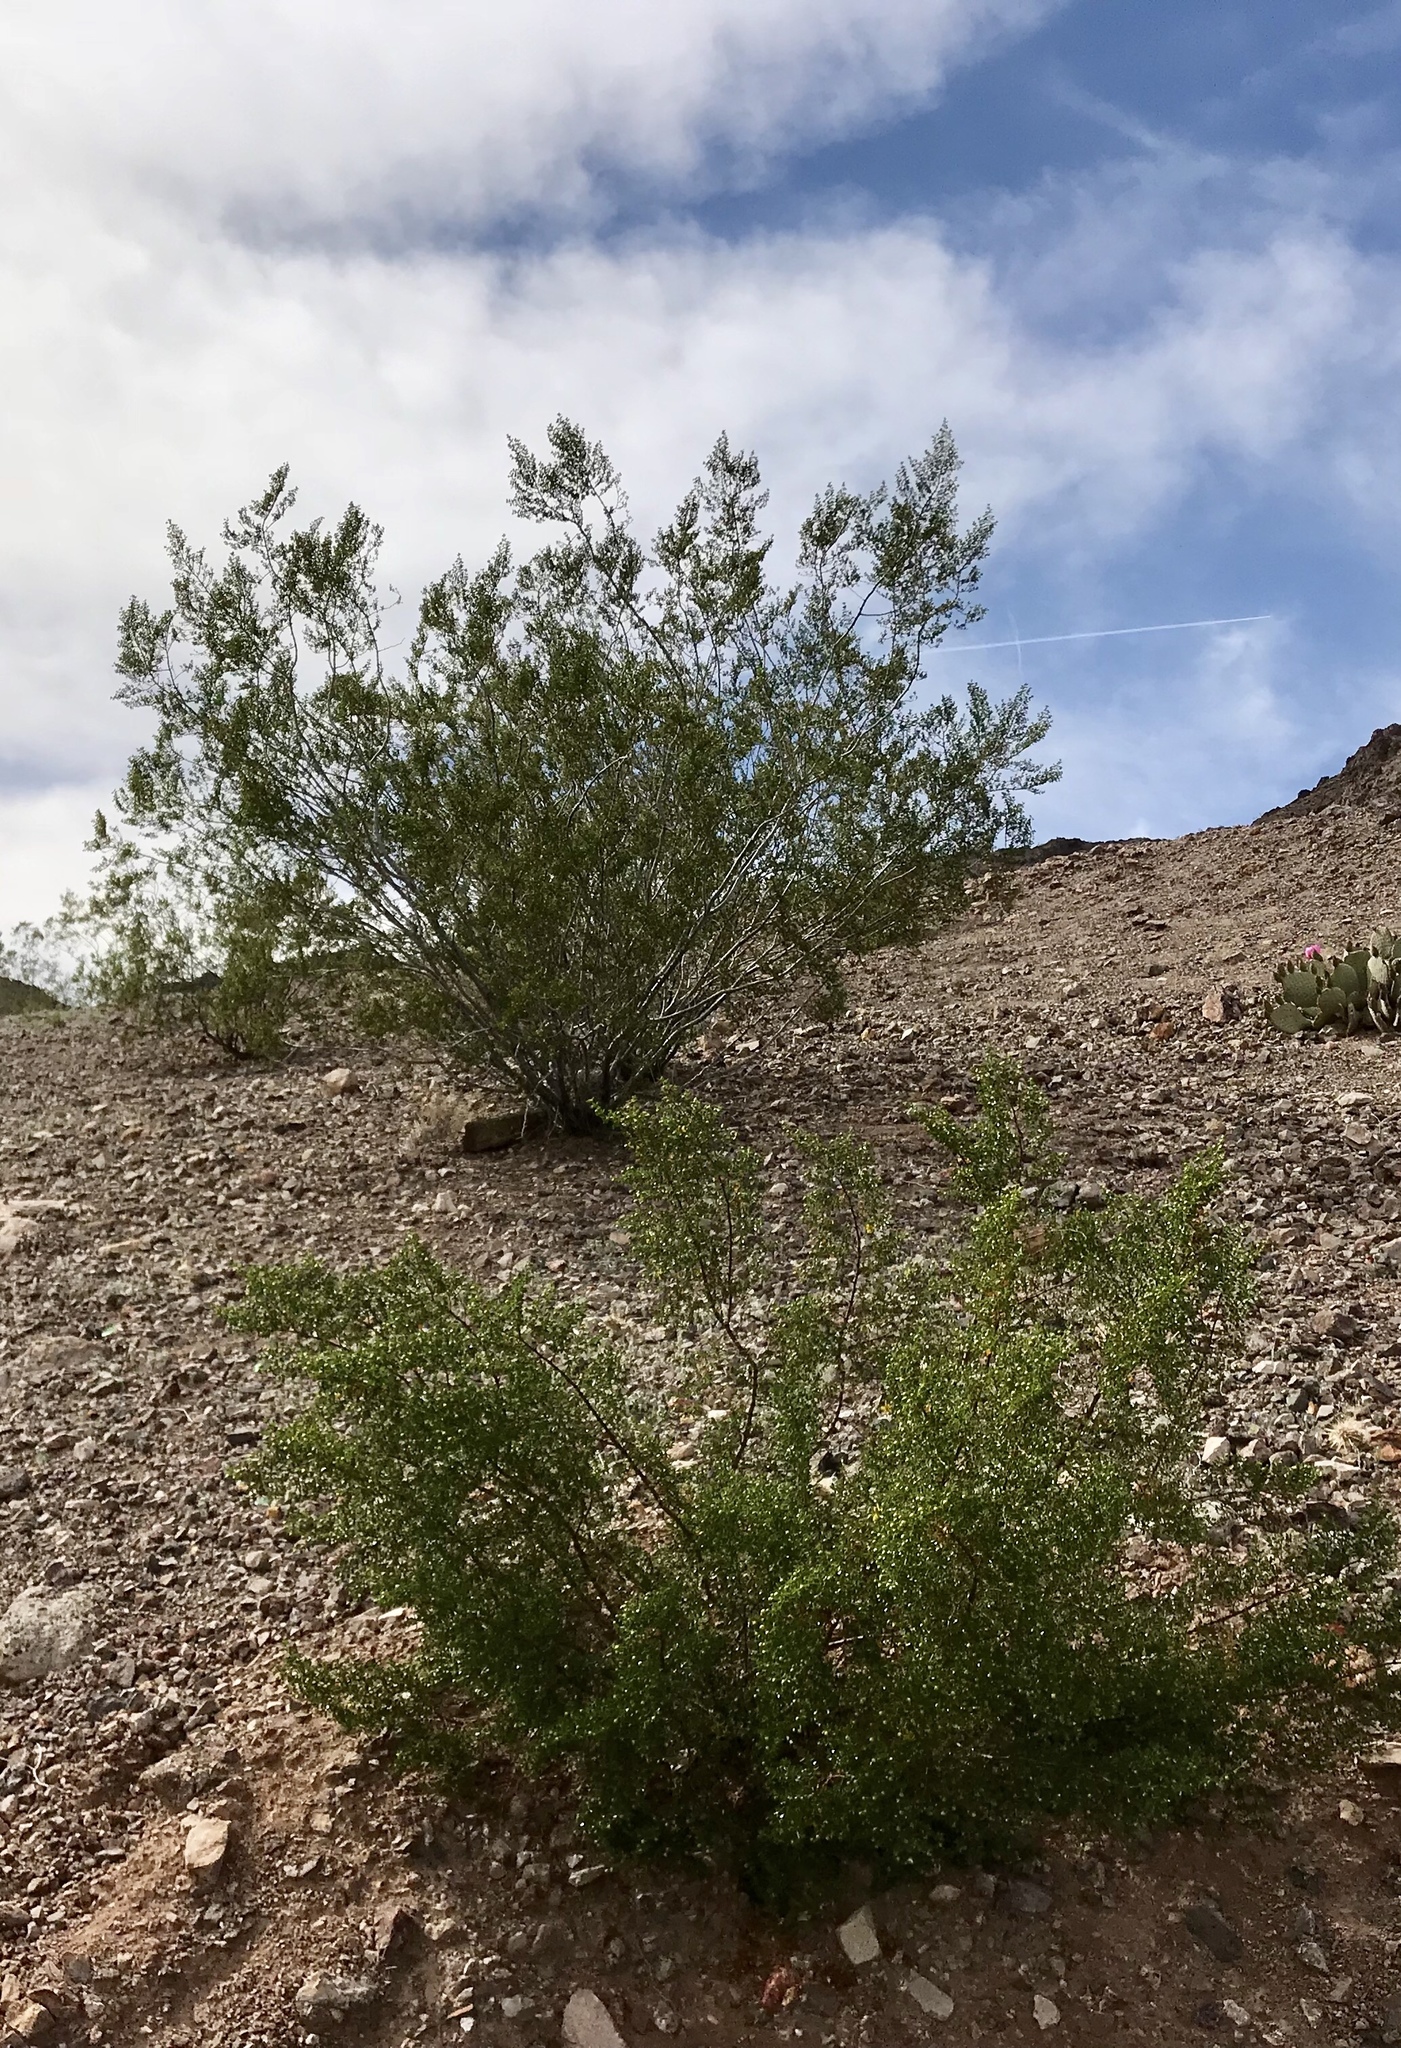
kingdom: Plantae
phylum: Tracheophyta
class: Magnoliopsida
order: Zygophyllales
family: Zygophyllaceae
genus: Larrea
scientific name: Larrea tridentata
